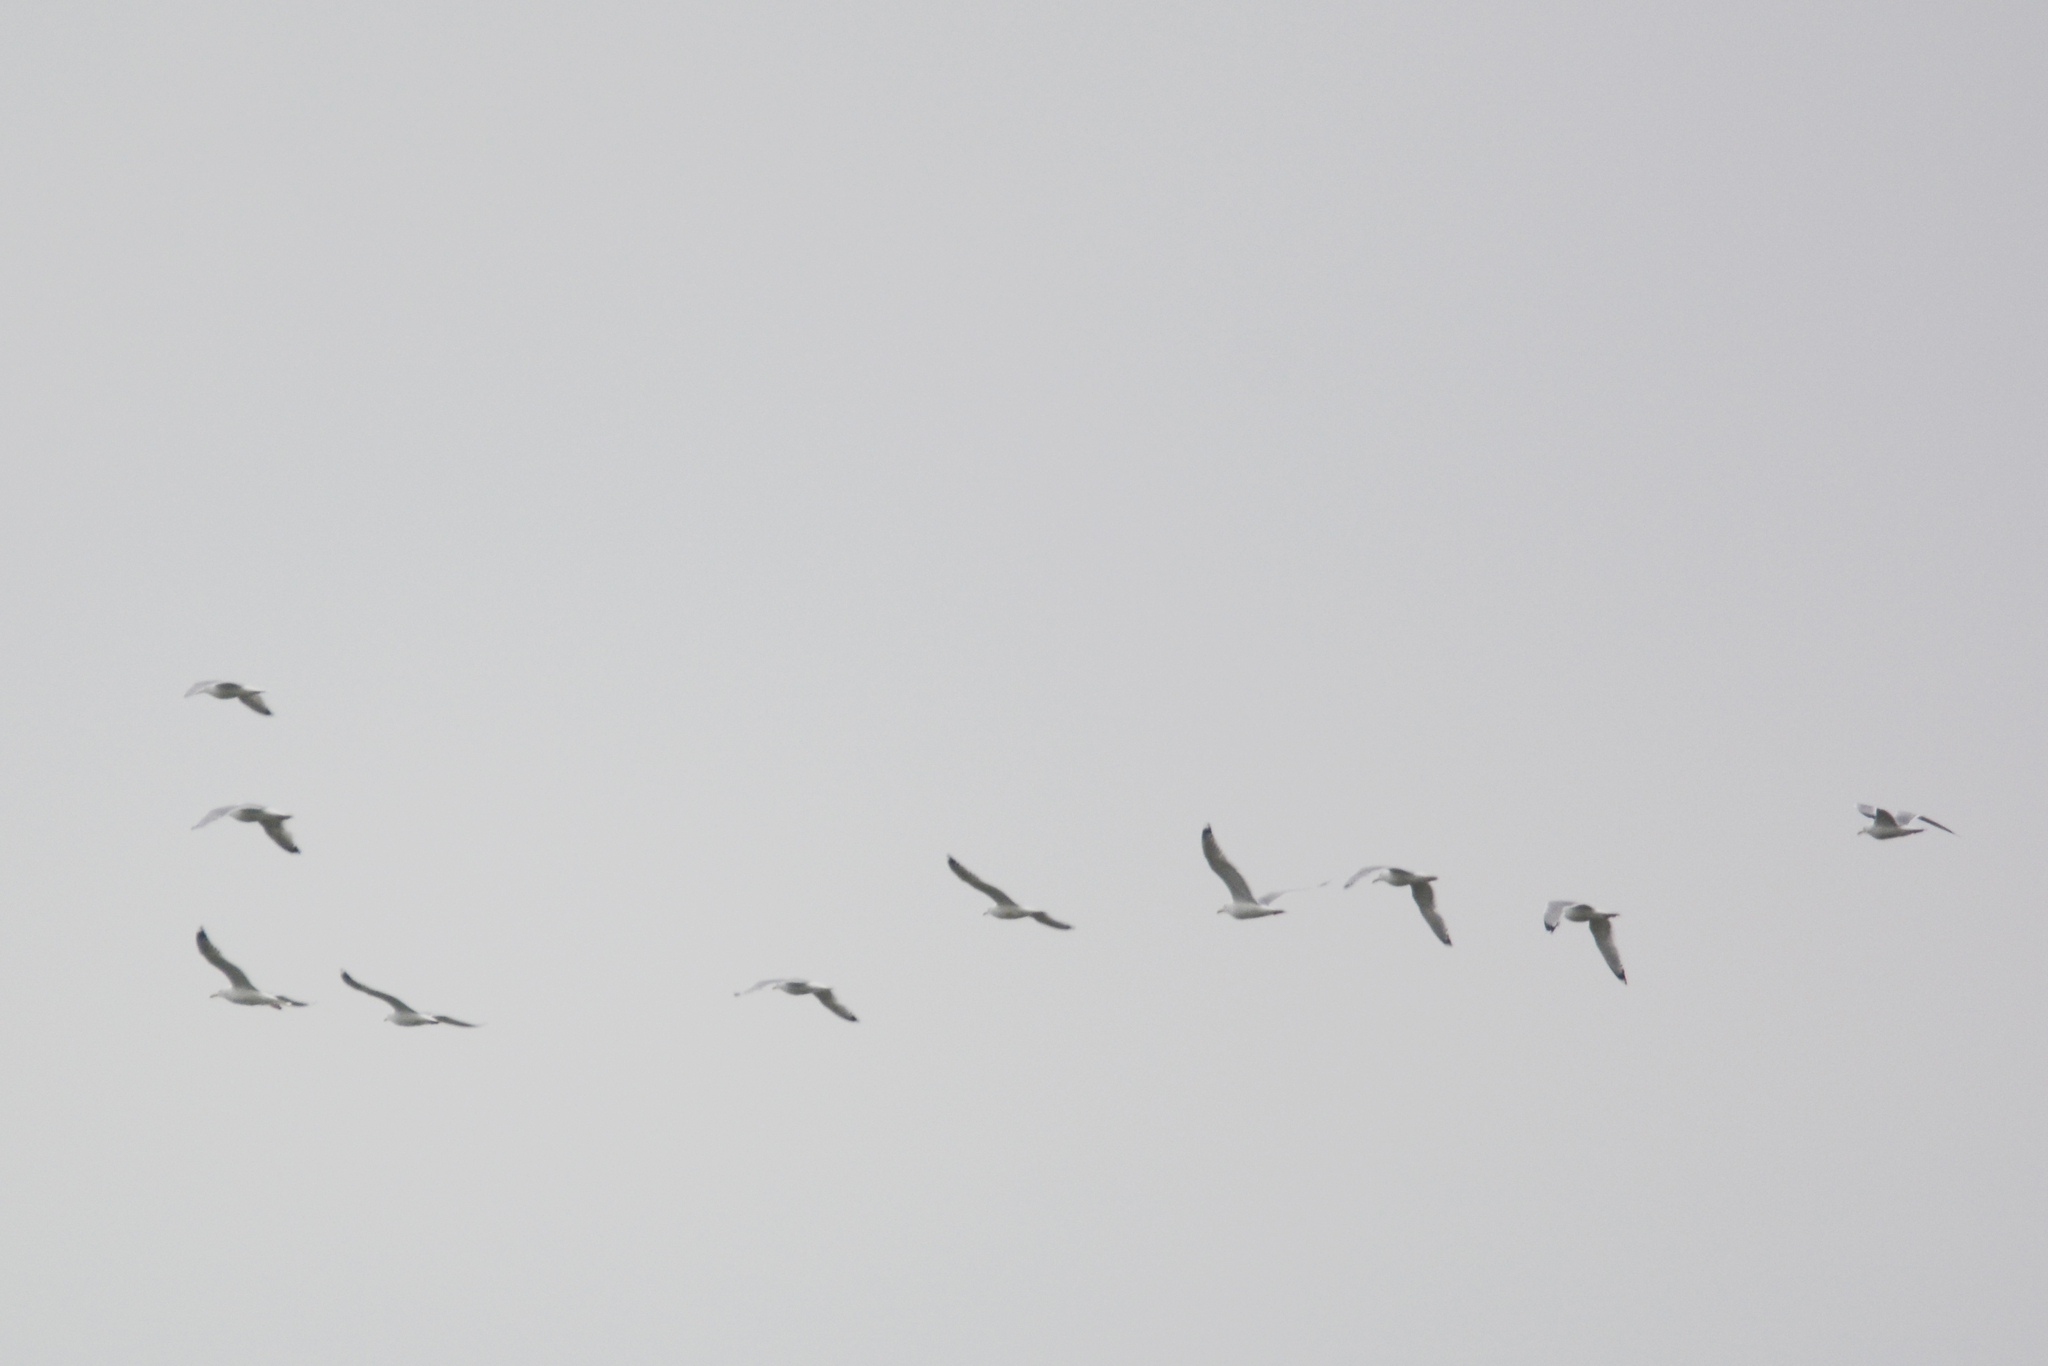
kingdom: Animalia
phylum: Chordata
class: Aves
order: Charadriiformes
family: Laridae
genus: Larus
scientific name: Larus cachinnans
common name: Caspian gull
